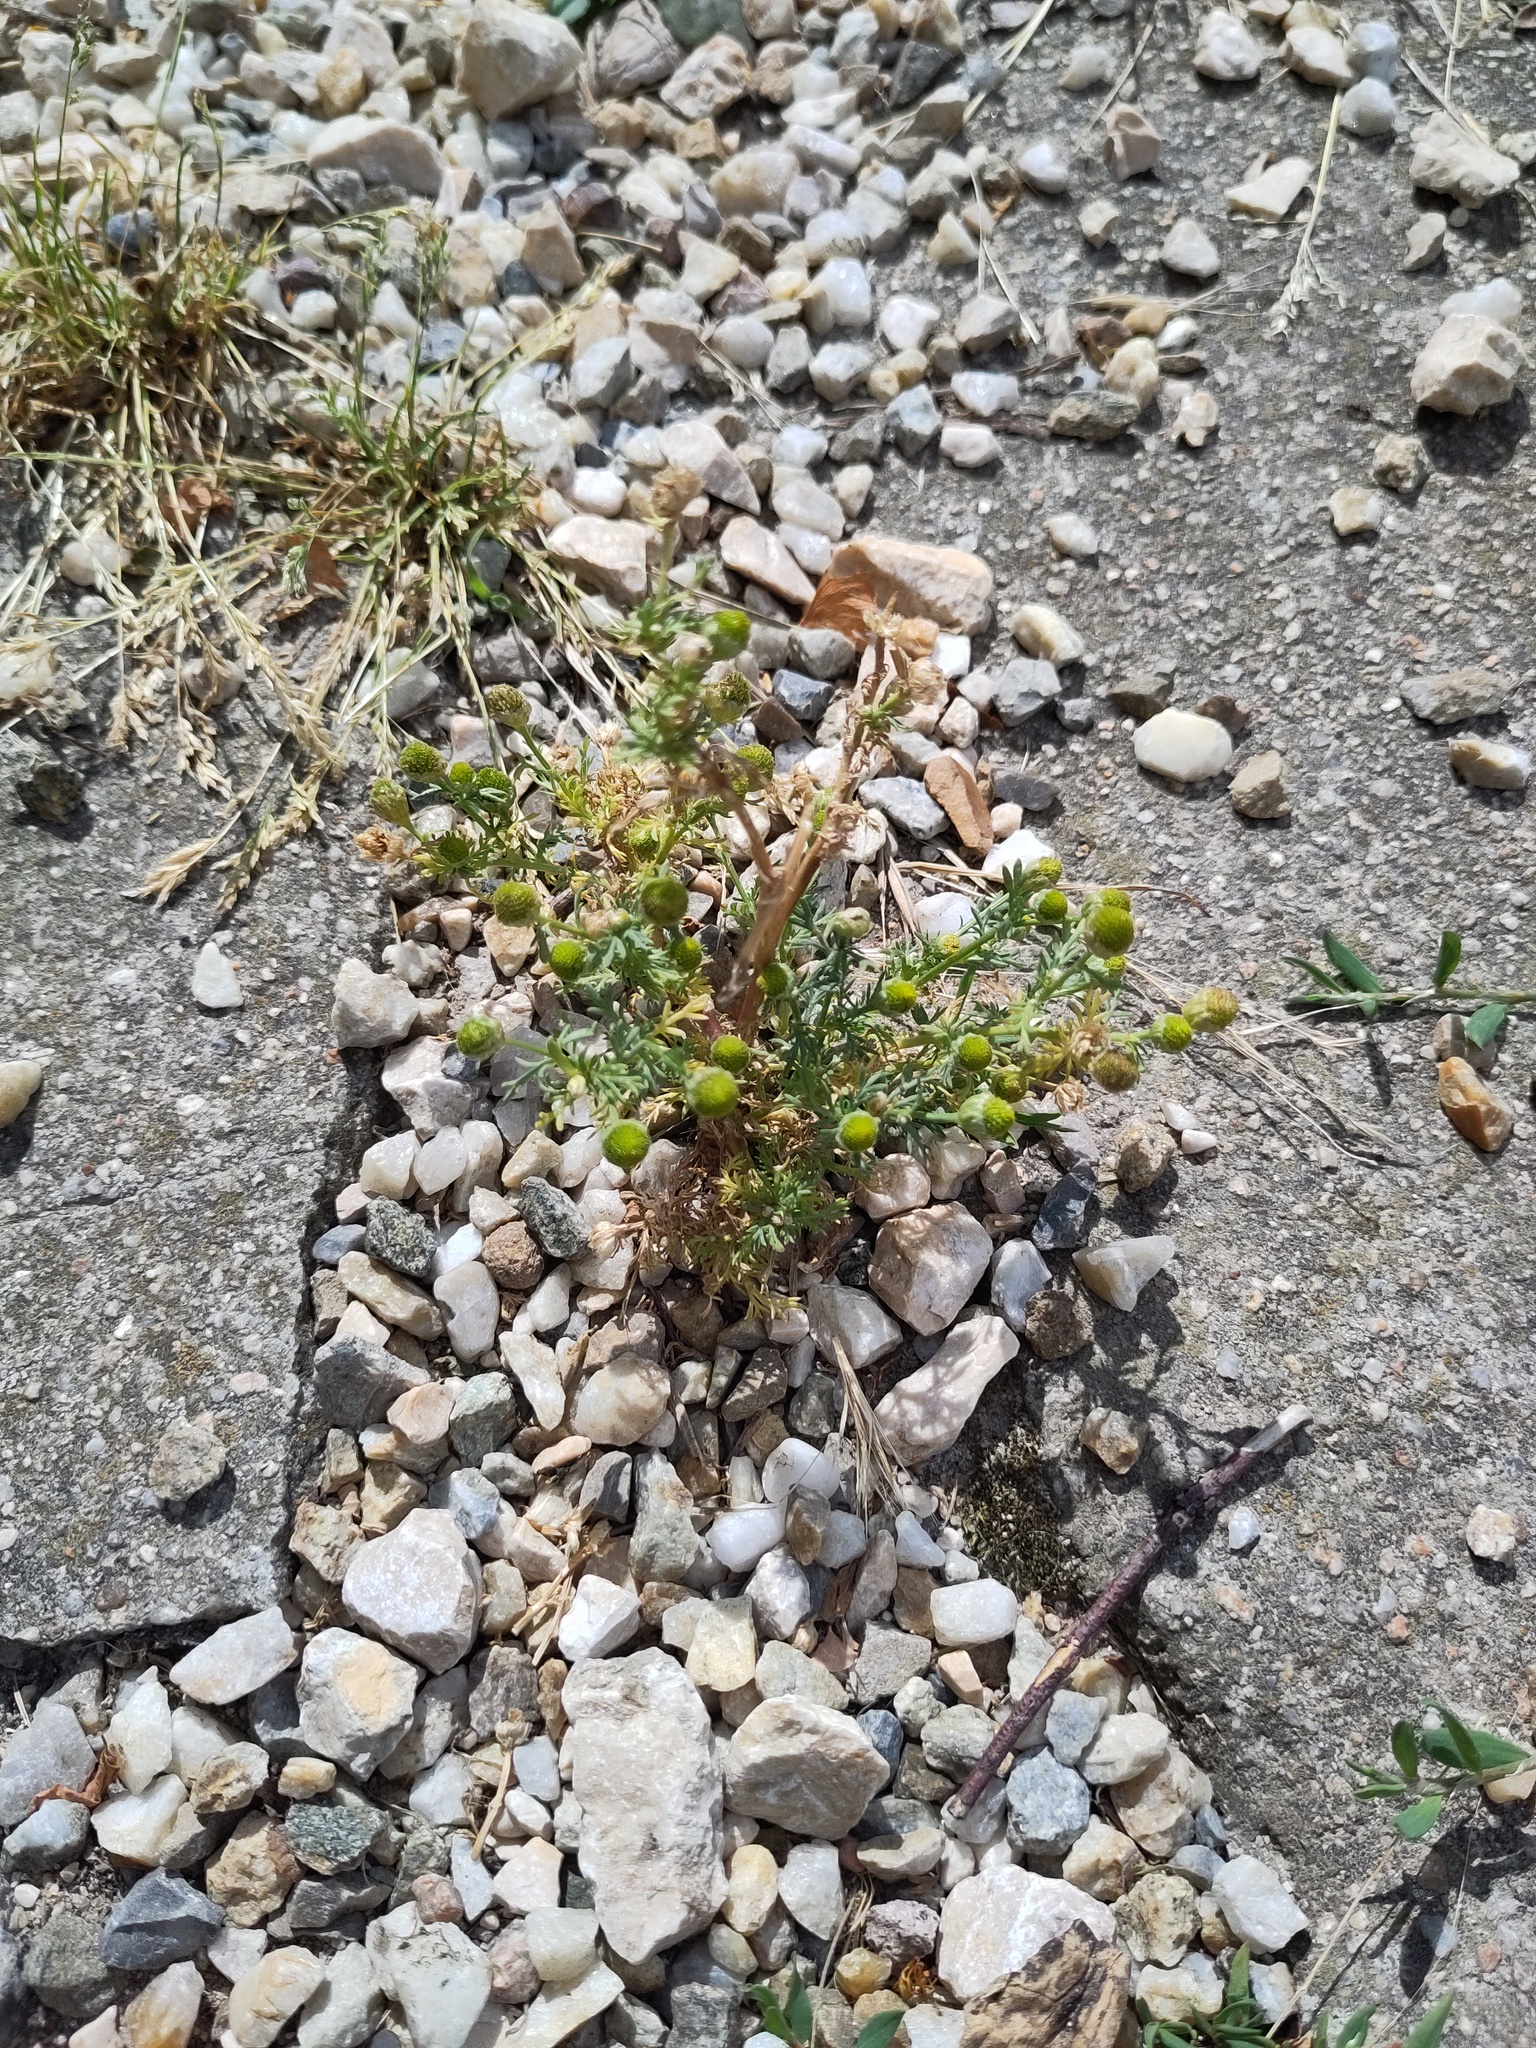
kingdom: Plantae
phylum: Tracheophyta
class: Magnoliopsida
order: Asterales
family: Asteraceae
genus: Matricaria
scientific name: Matricaria discoidea
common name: Disc mayweed
